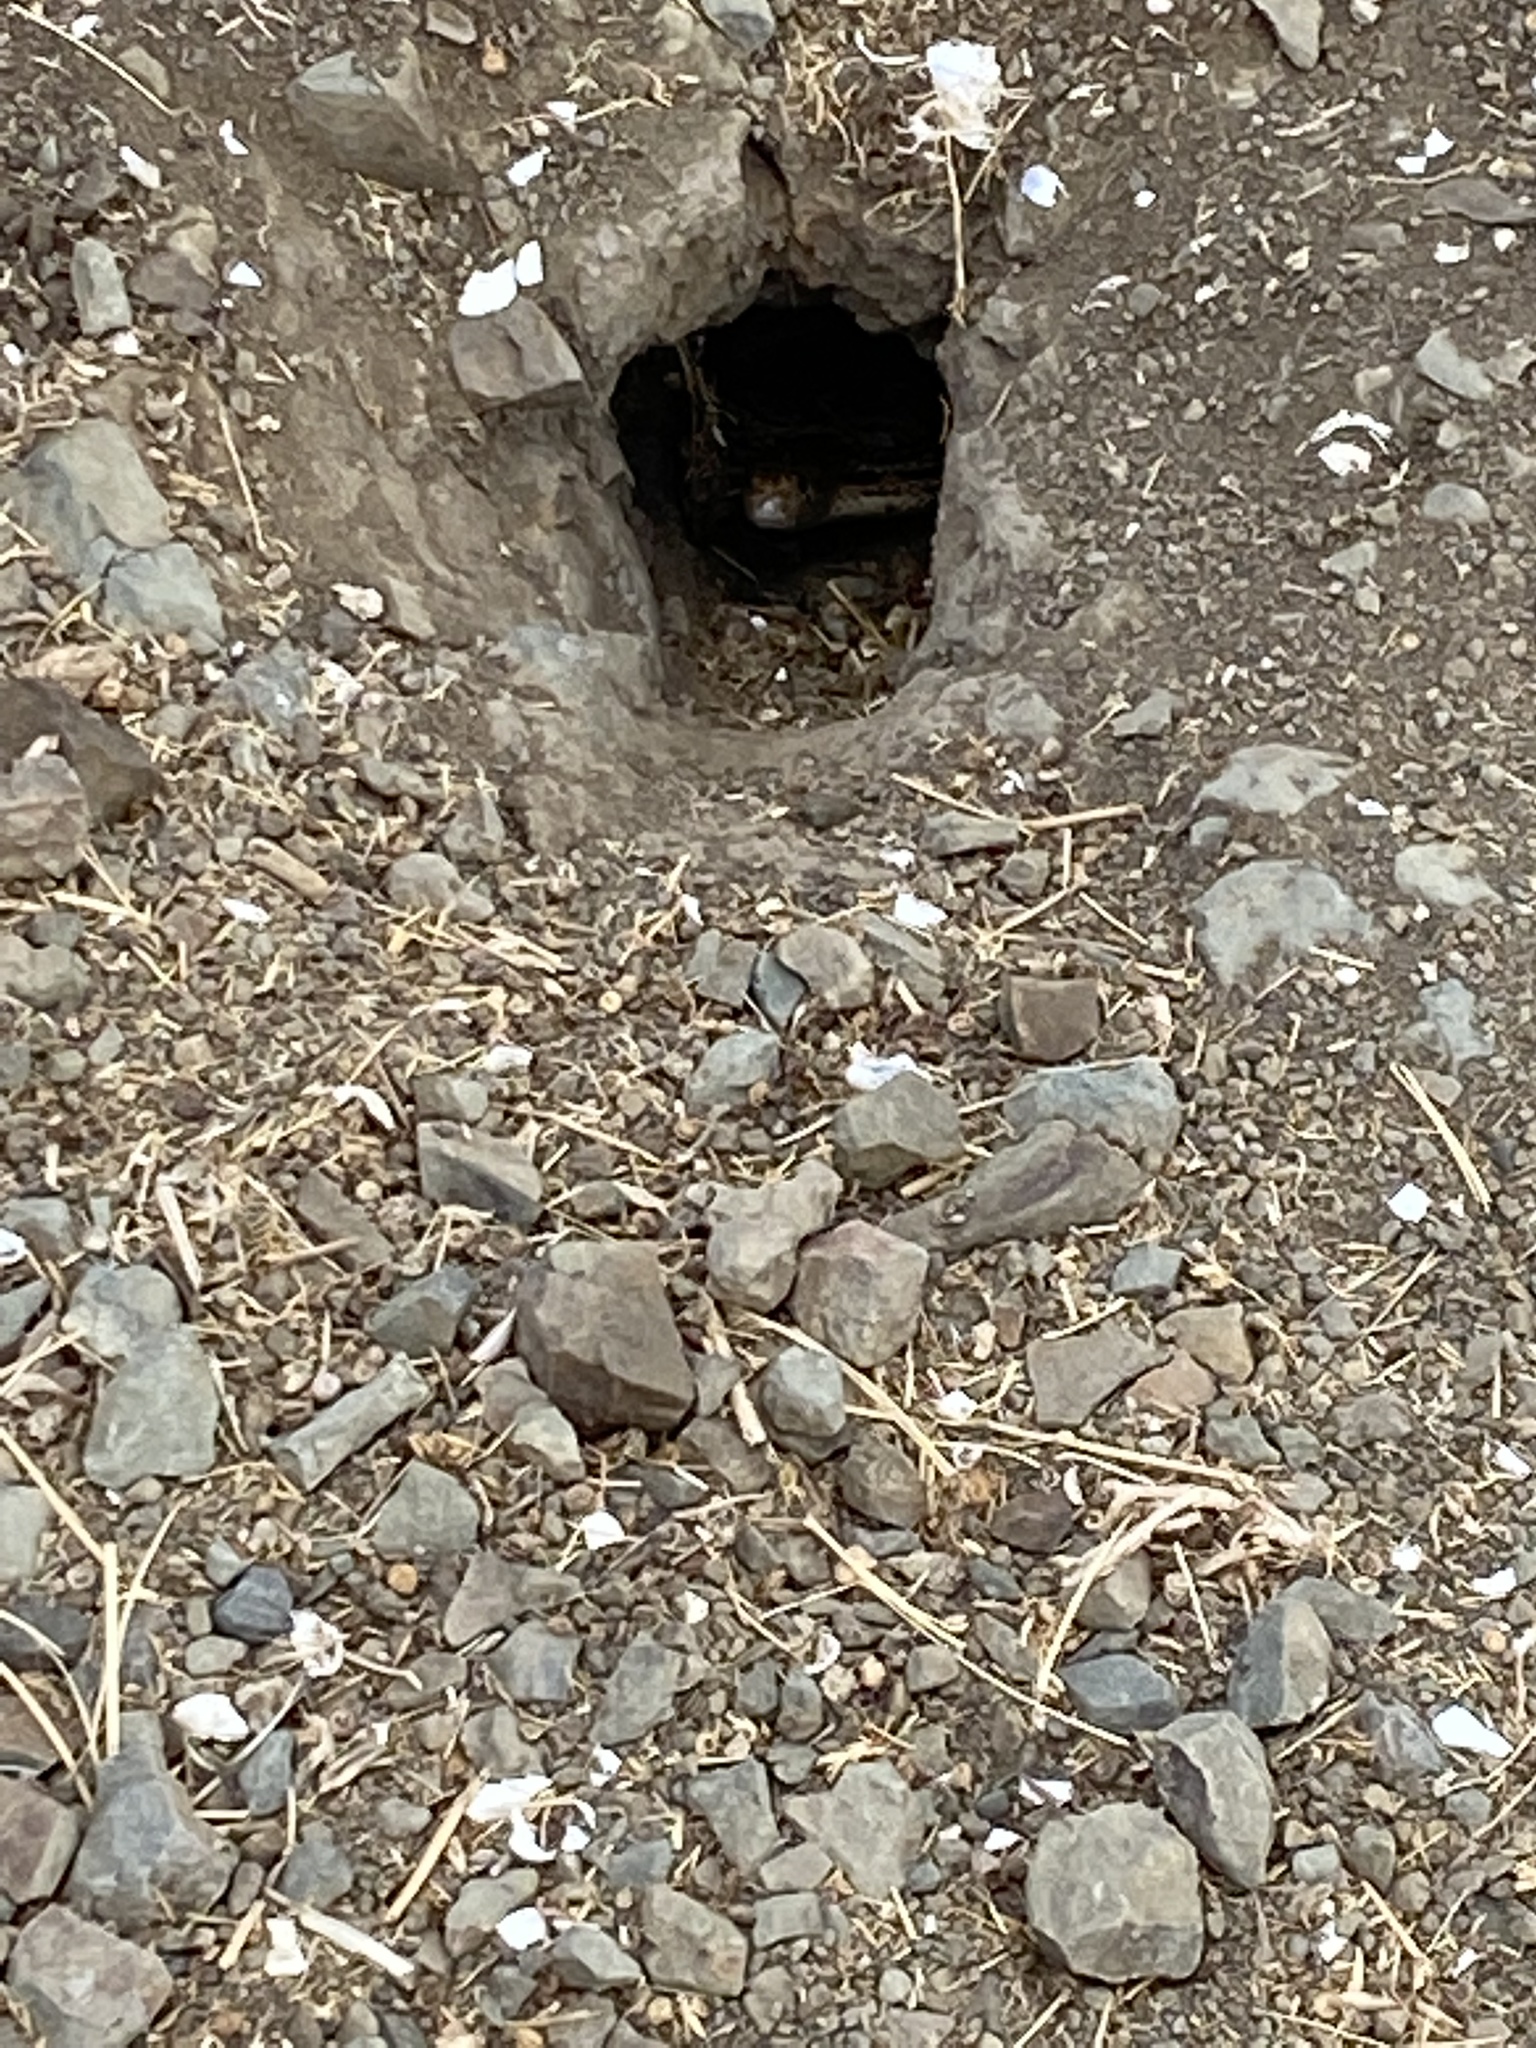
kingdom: Animalia
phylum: Chordata
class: Squamata
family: Colubridae
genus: Pituophis
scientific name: Pituophis catenifer
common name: Gopher snake
